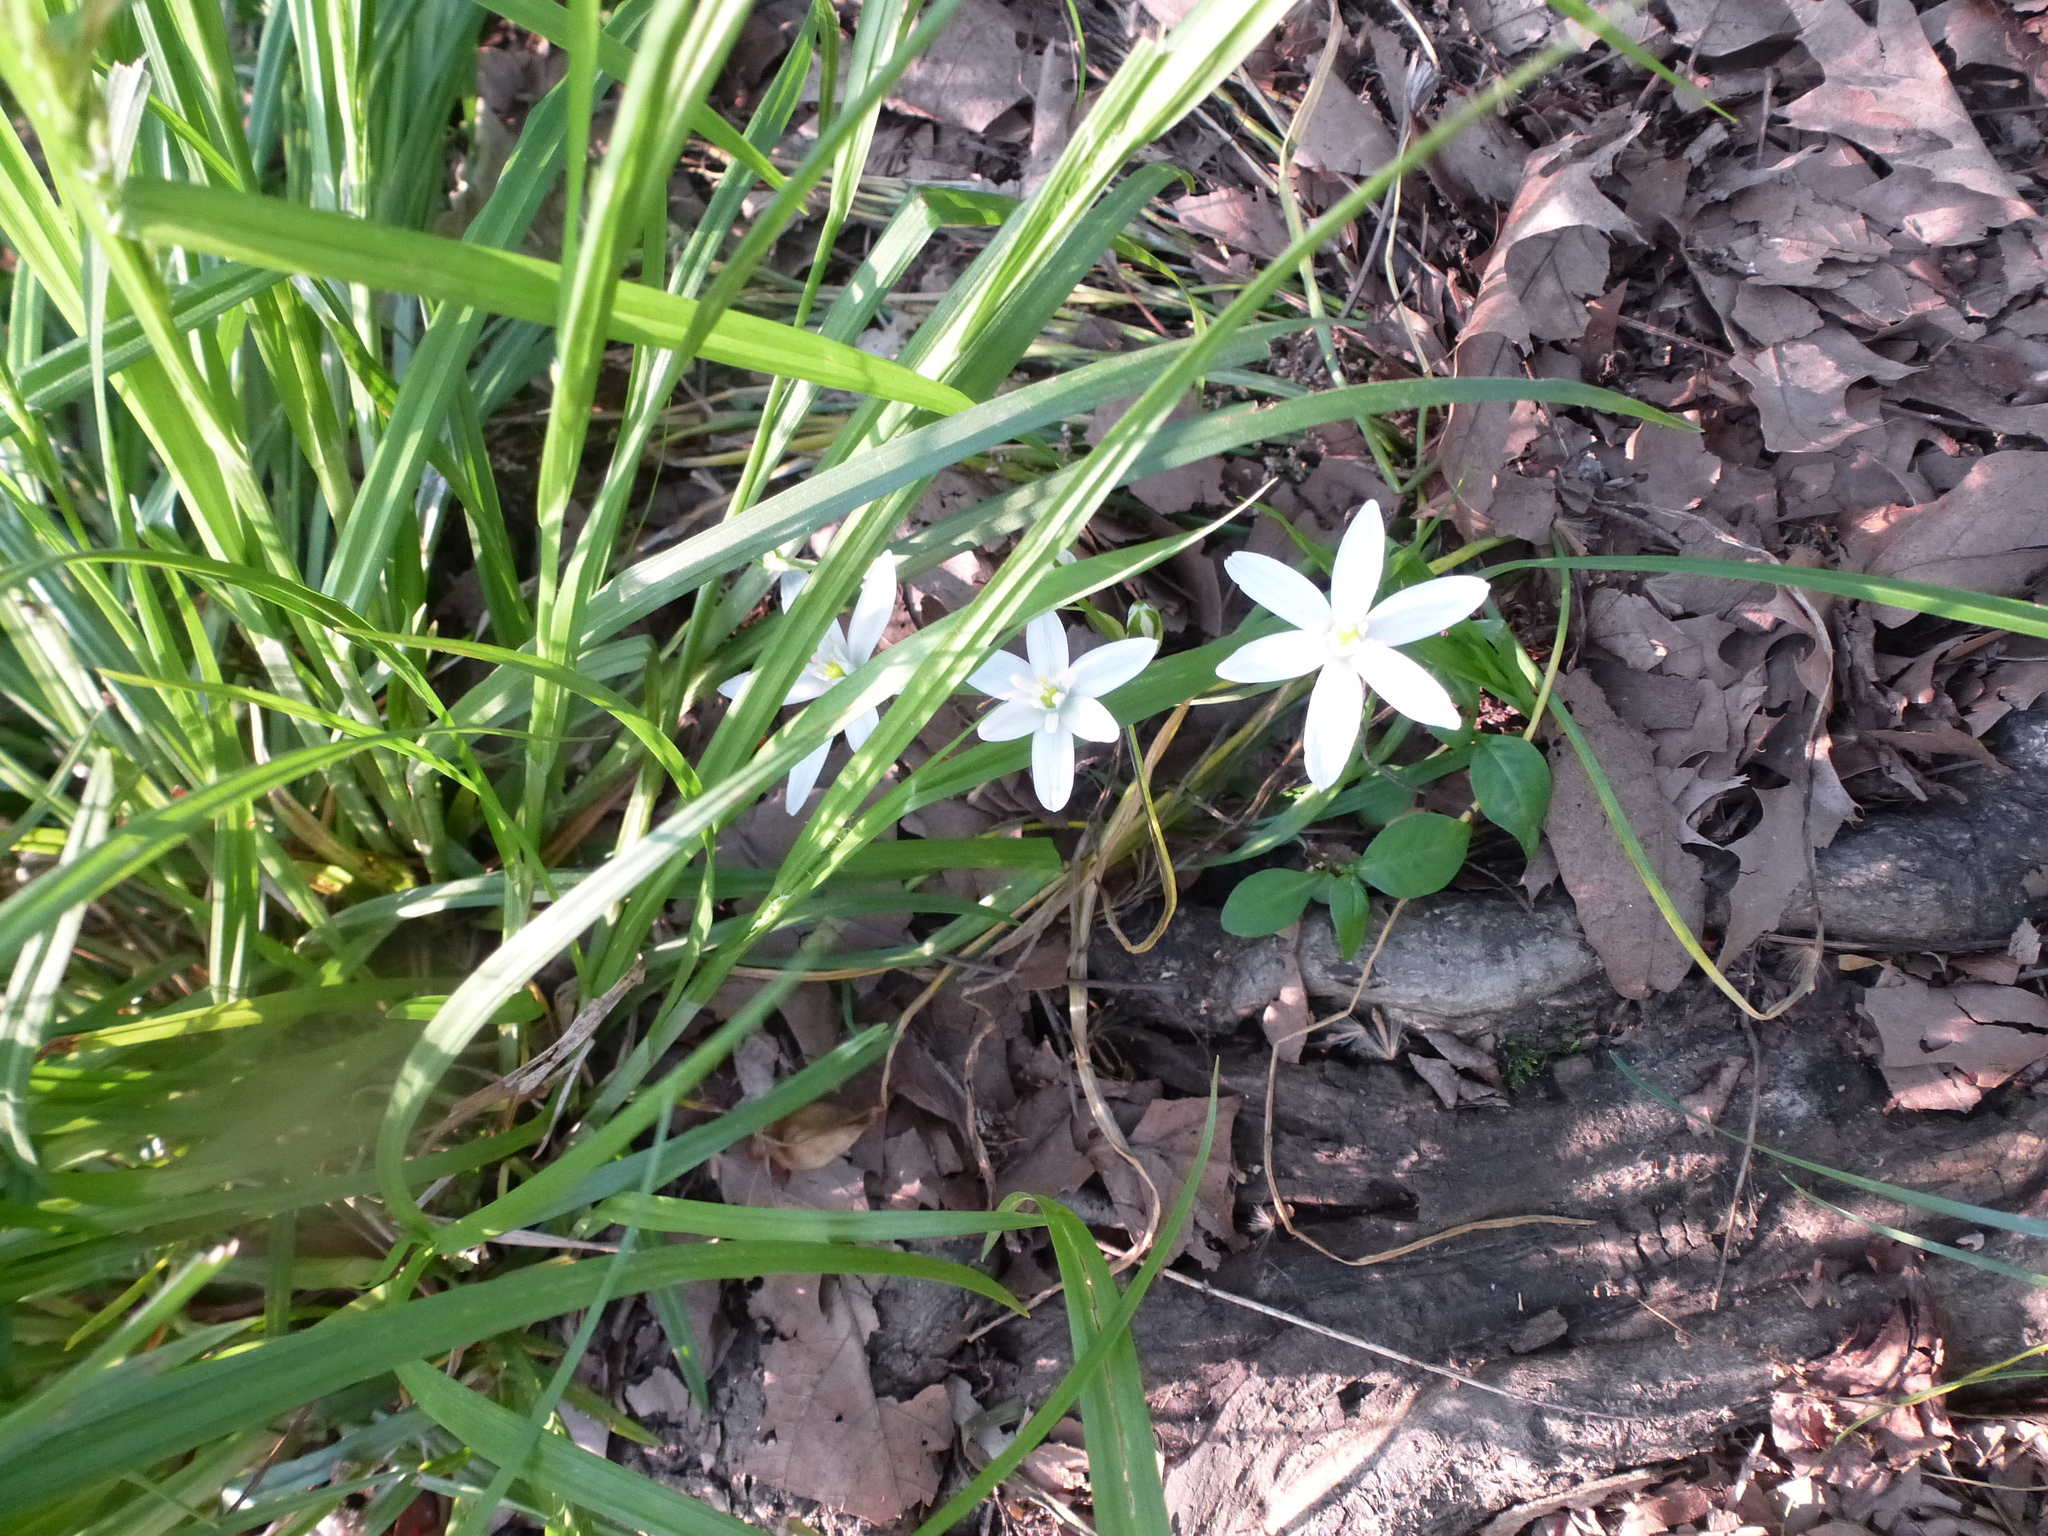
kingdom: Plantae
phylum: Tracheophyta
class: Liliopsida
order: Asparagales
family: Asparagaceae
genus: Ornithogalum
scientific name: Ornithogalum umbellatum
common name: Garden star-of-bethlehem
